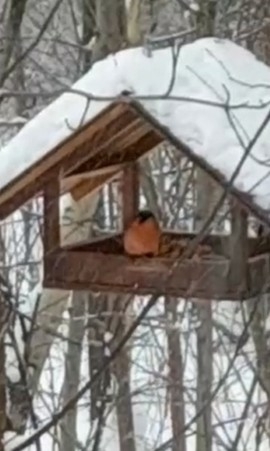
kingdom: Animalia
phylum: Chordata
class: Aves
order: Passeriformes
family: Fringillidae
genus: Pyrrhula
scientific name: Pyrrhula pyrrhula
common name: Eurasian bullfinch
